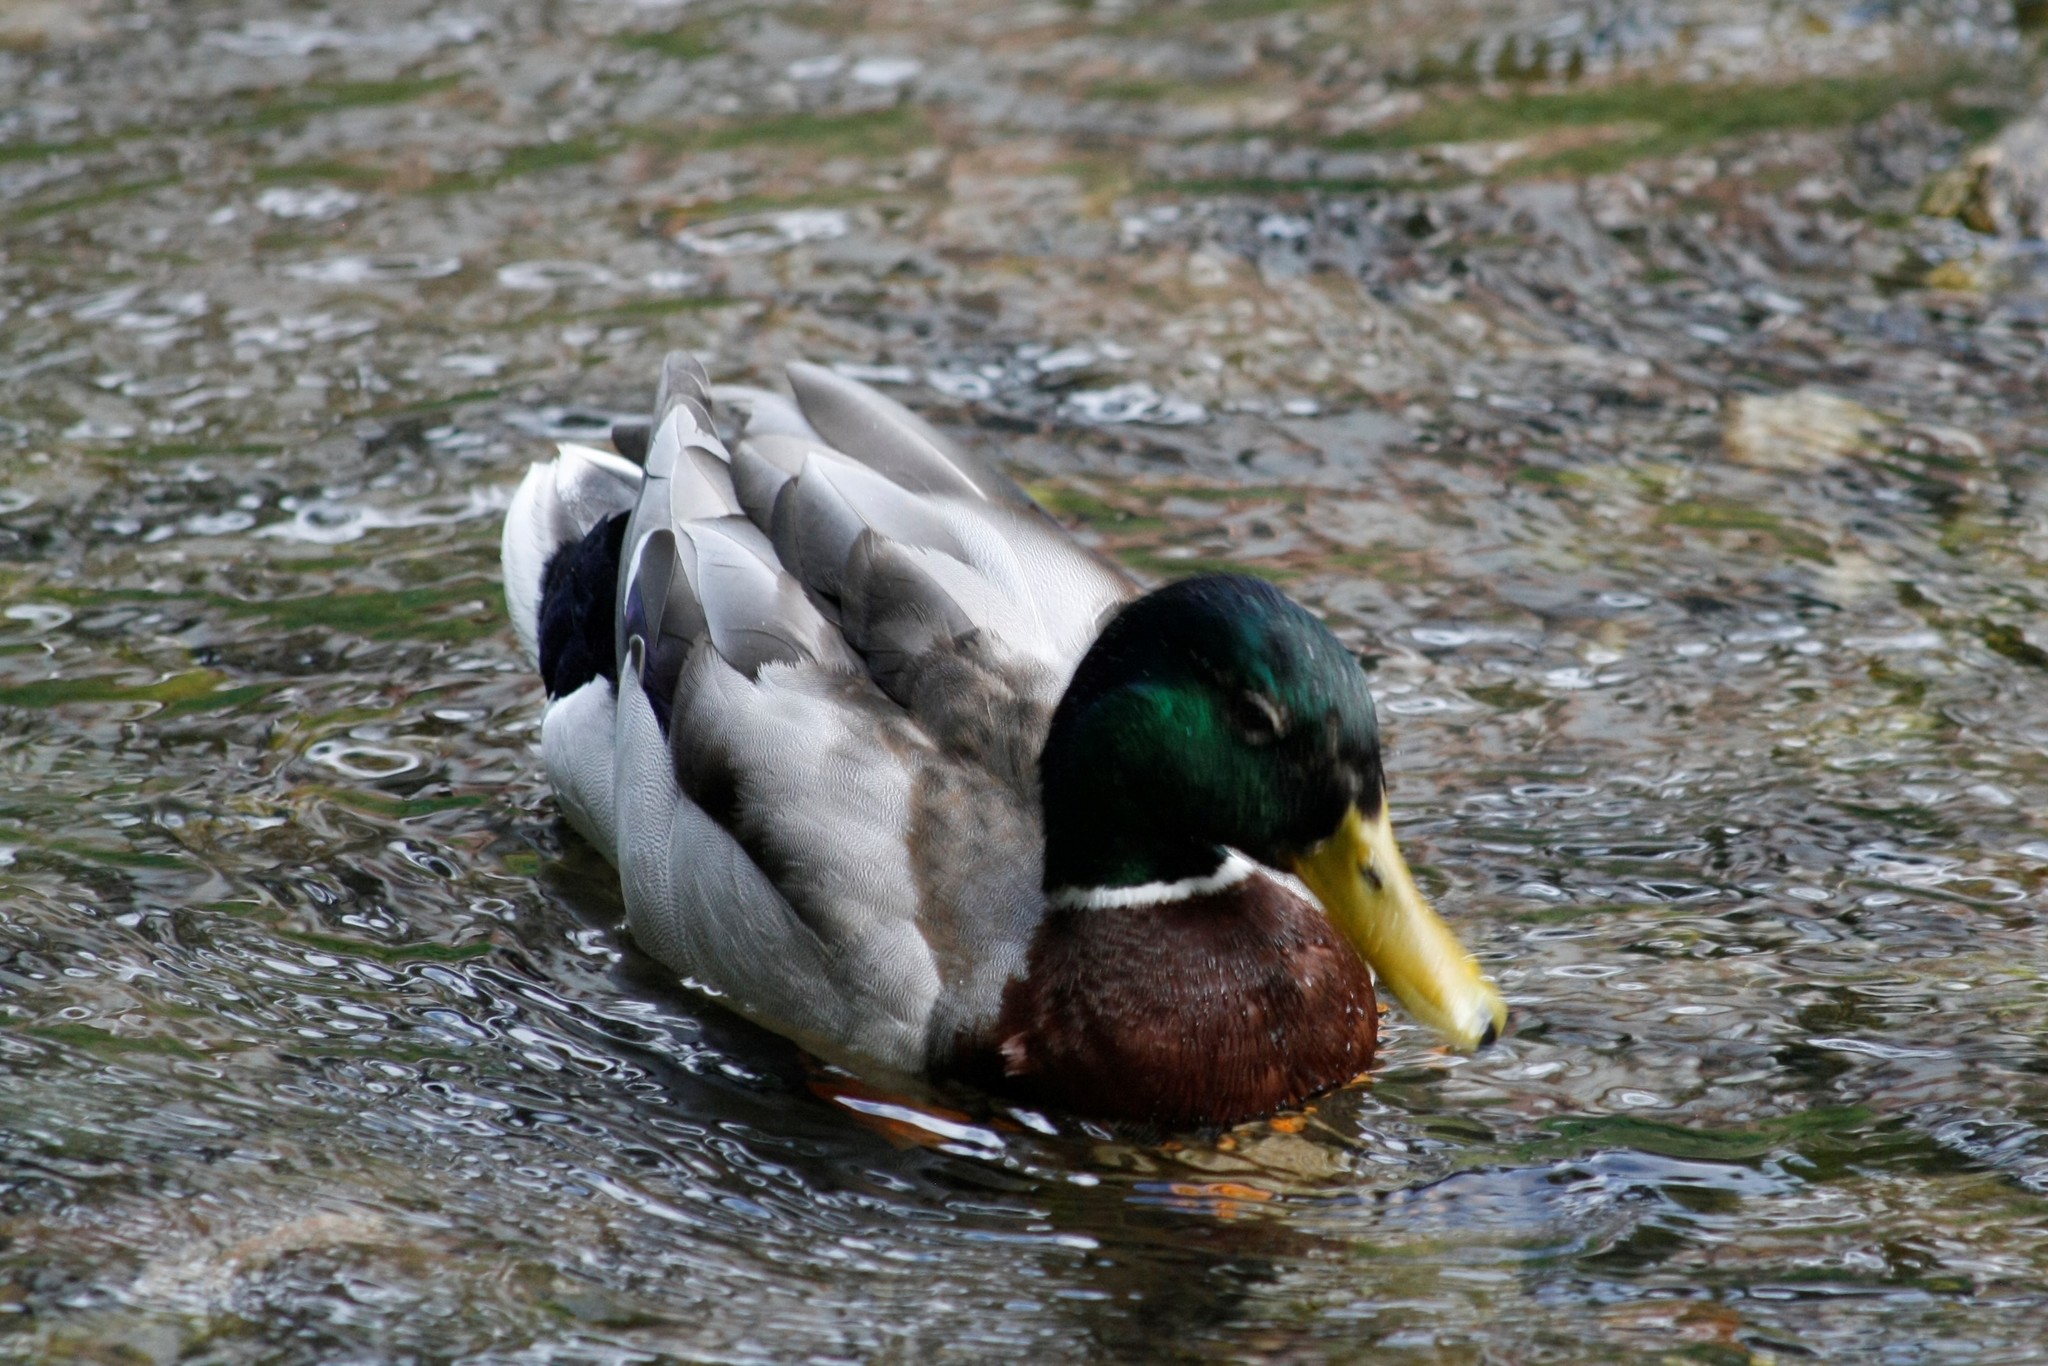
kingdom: Animalia
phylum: Chordata
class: Aves
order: Anseriformes
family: Anatidae
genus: Anas
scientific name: Anas platyrhynchos
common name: Mallard
